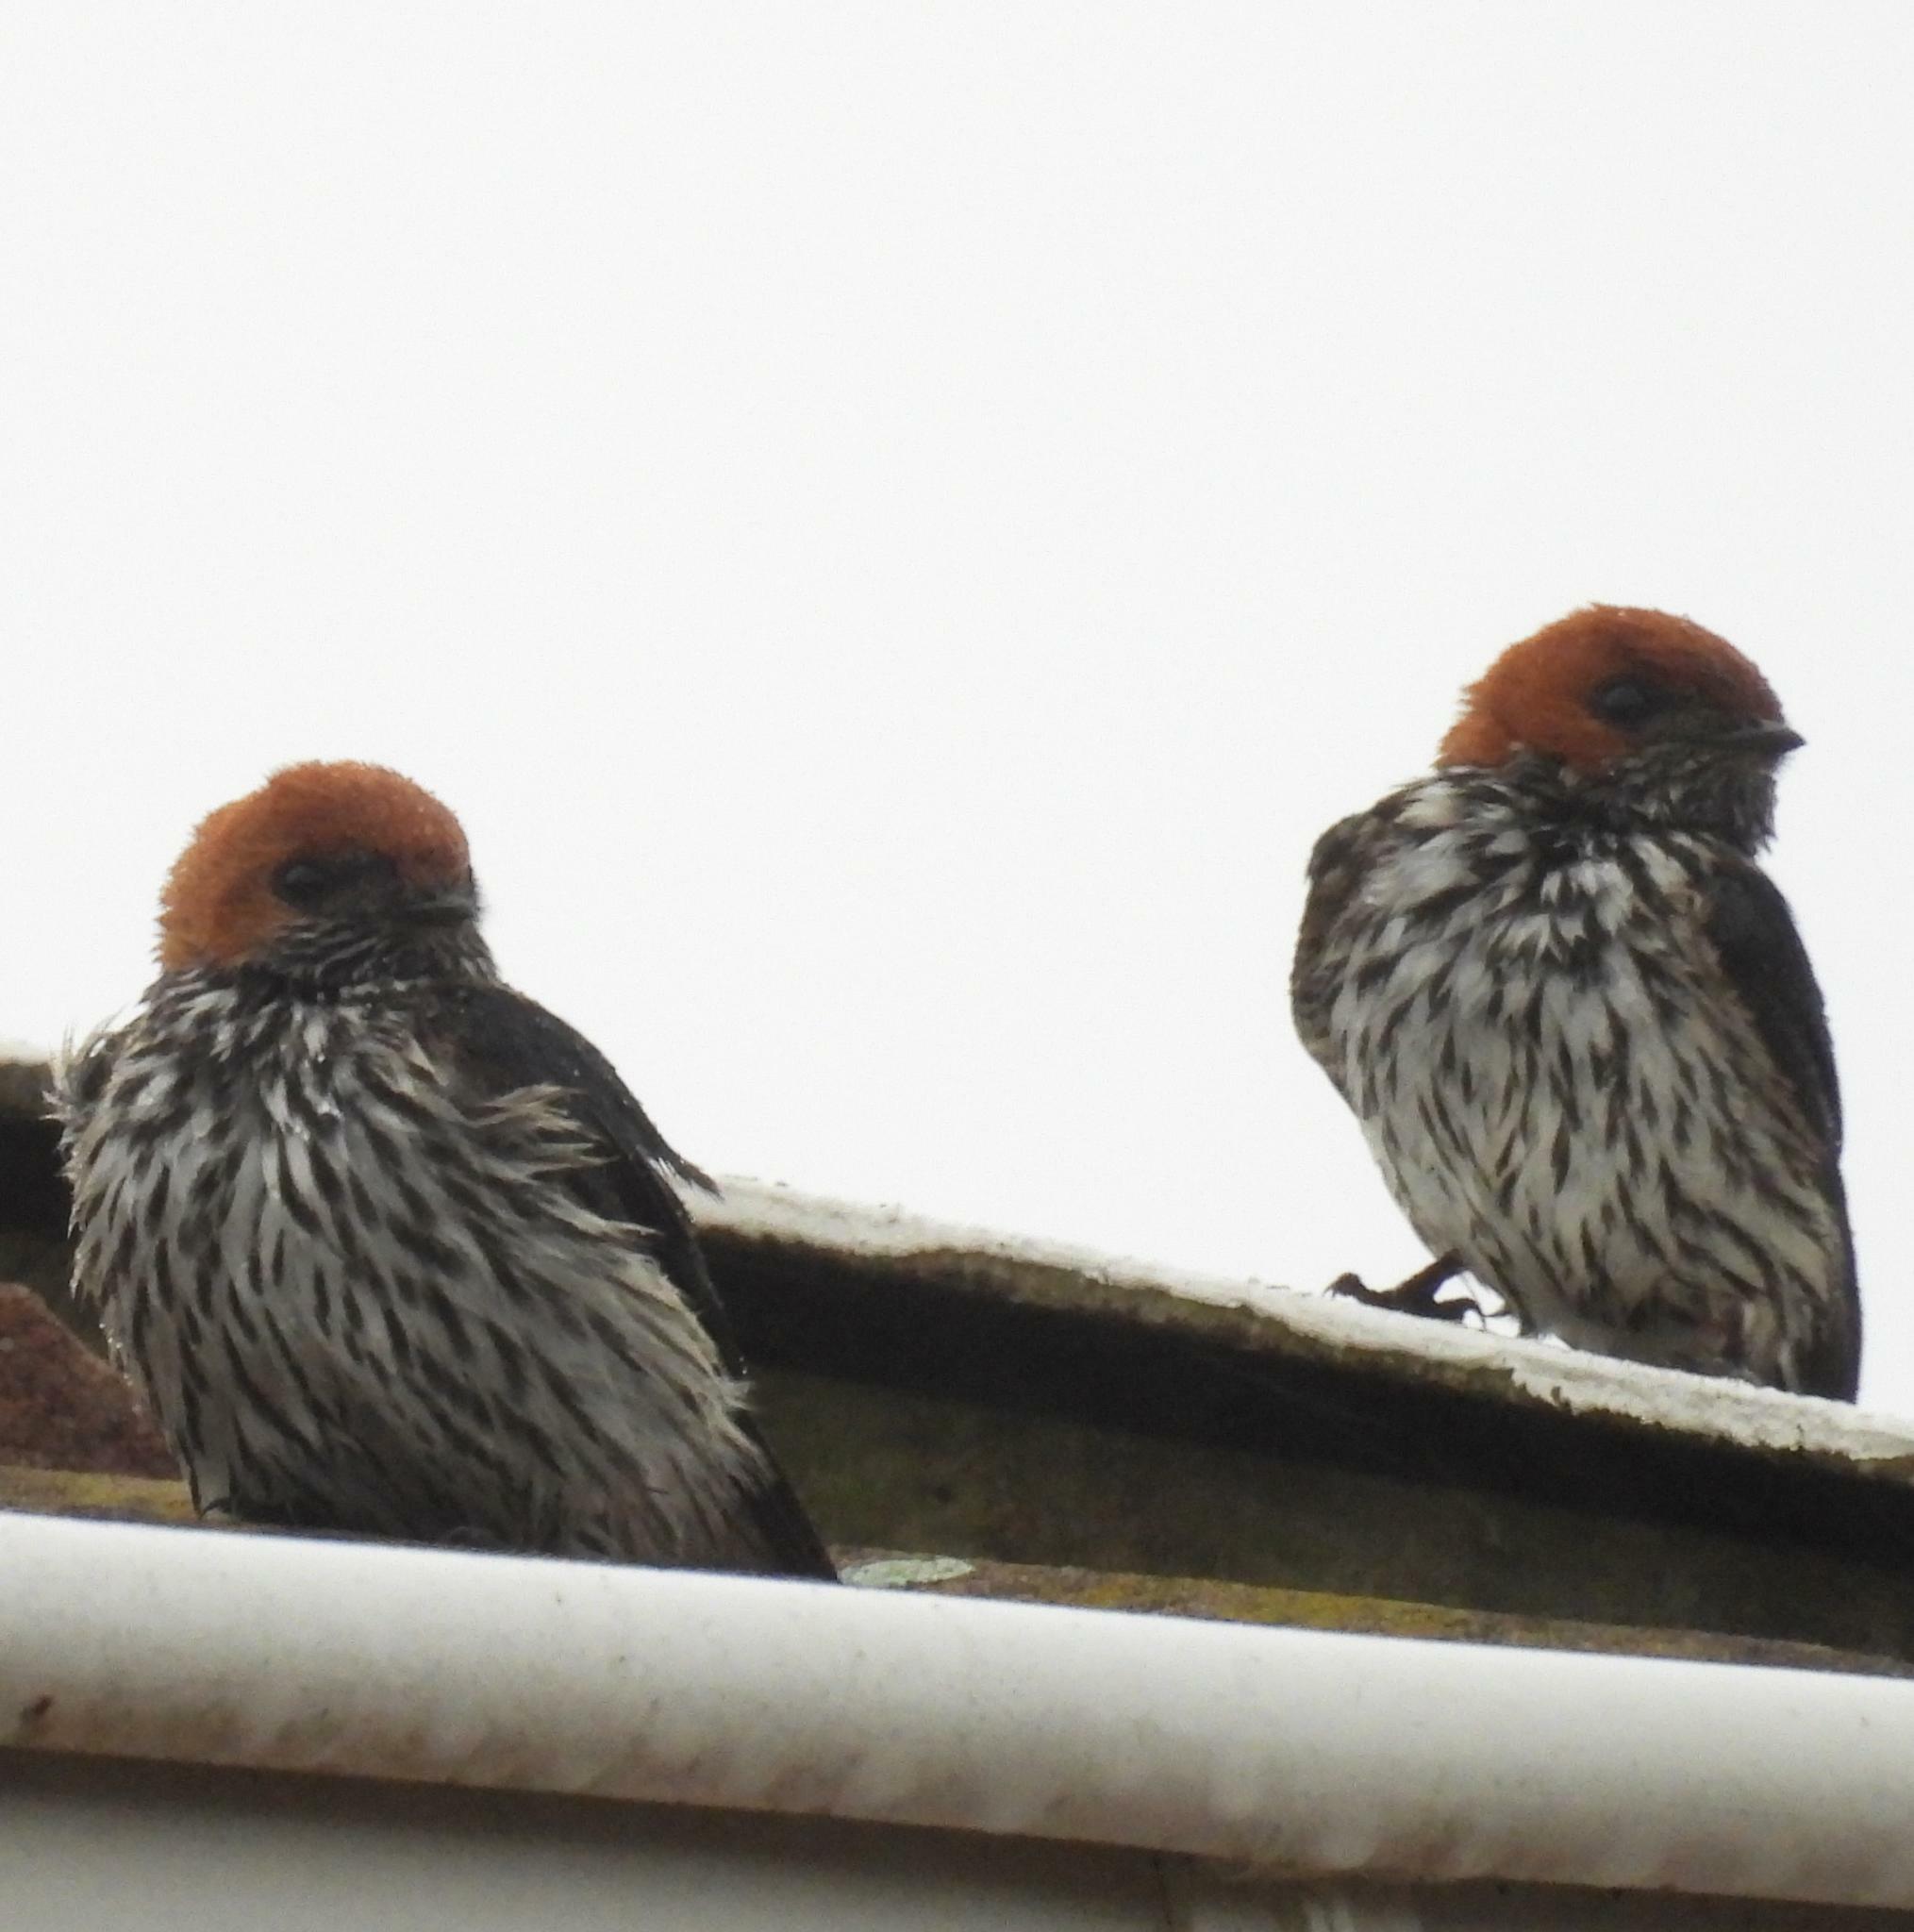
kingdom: Animalia
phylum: Chordata
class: Aves
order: Passeriformes
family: Hirundinidae
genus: Cecropis
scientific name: Cecropis abyssinica
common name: Lesser striped-swallow
